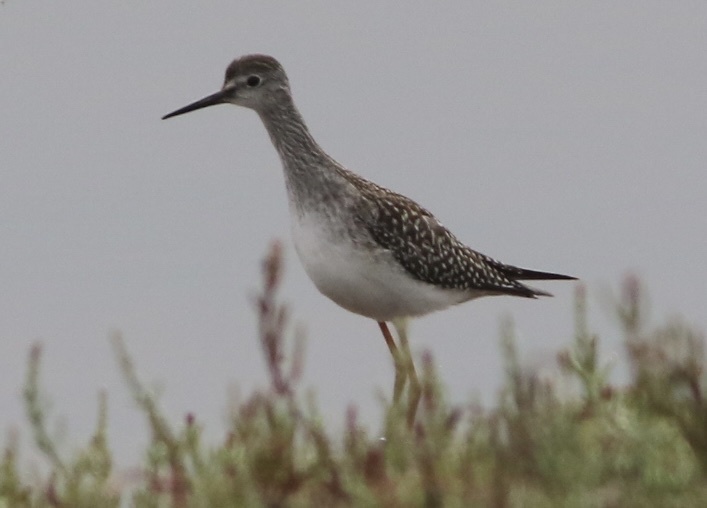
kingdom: Animalia
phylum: Chordata
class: Aves
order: Charadriiformes
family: Scolopacidae
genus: Tringa
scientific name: Tringa flavipes
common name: Lesser yellowlegs
